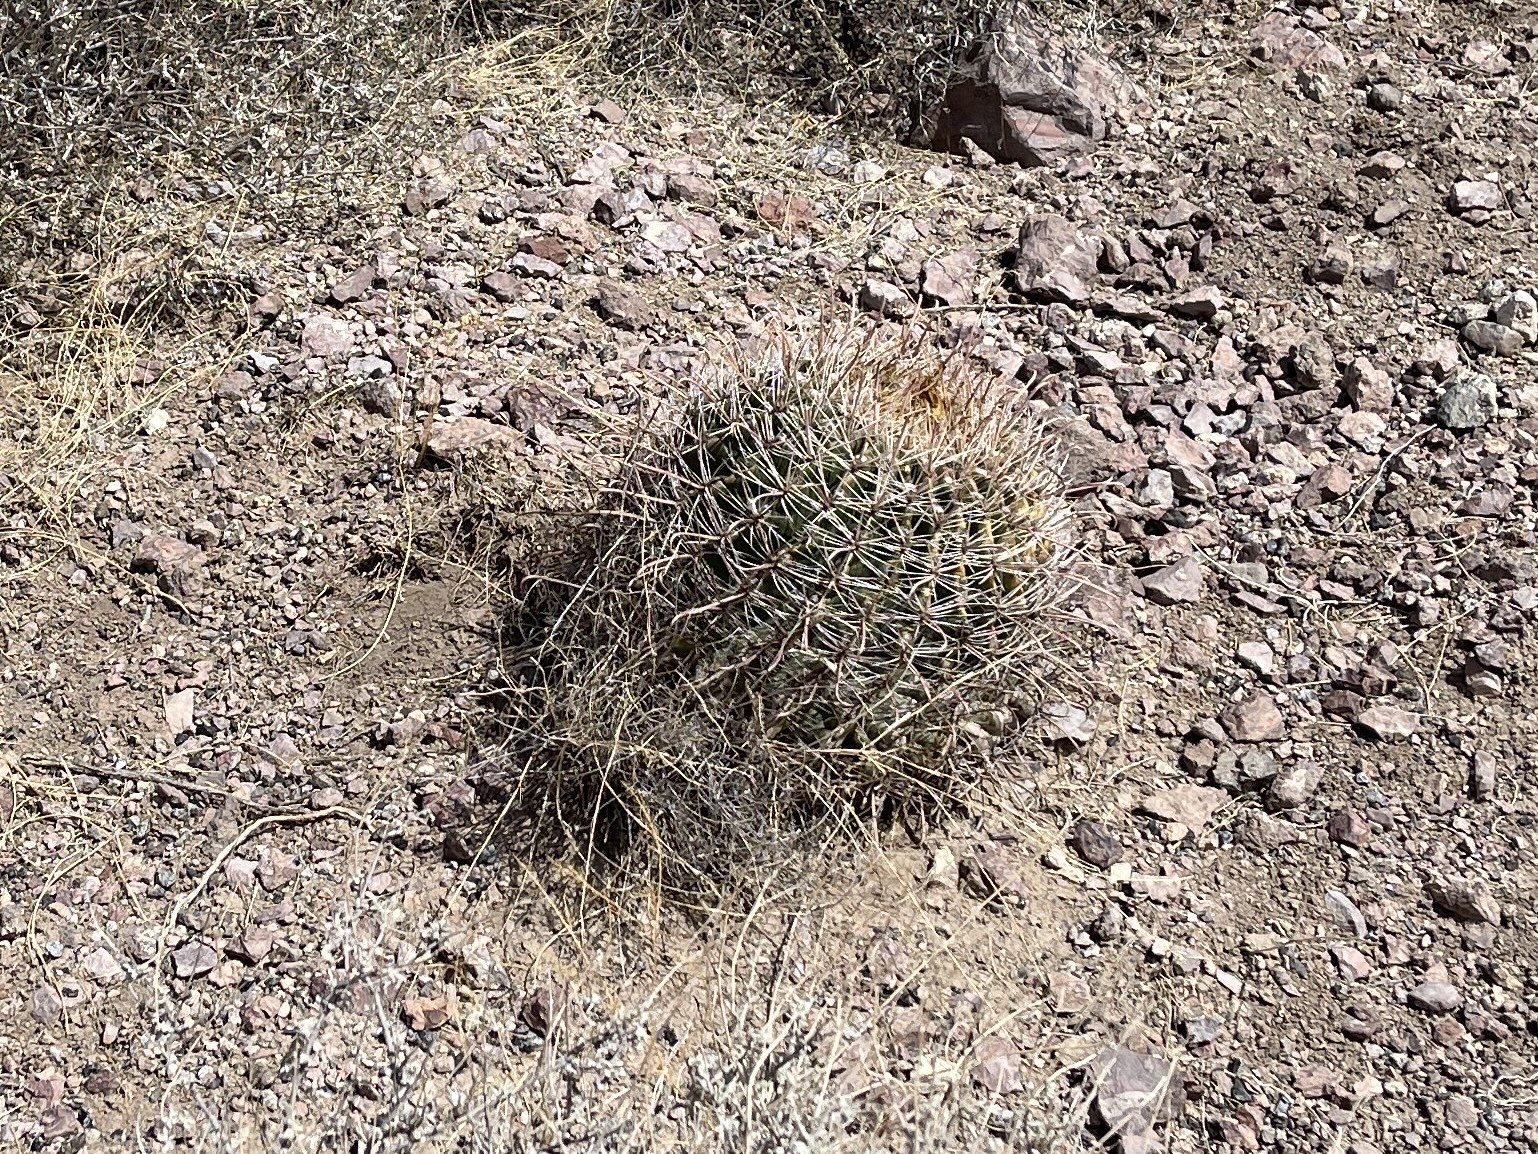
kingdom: Plantae
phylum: Tracheophyta
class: Magnoliopsida
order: Caryophyllales
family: Cactaceae
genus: Ferocactus
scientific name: Ferocactus wislizeni
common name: Candy barrel cactus
